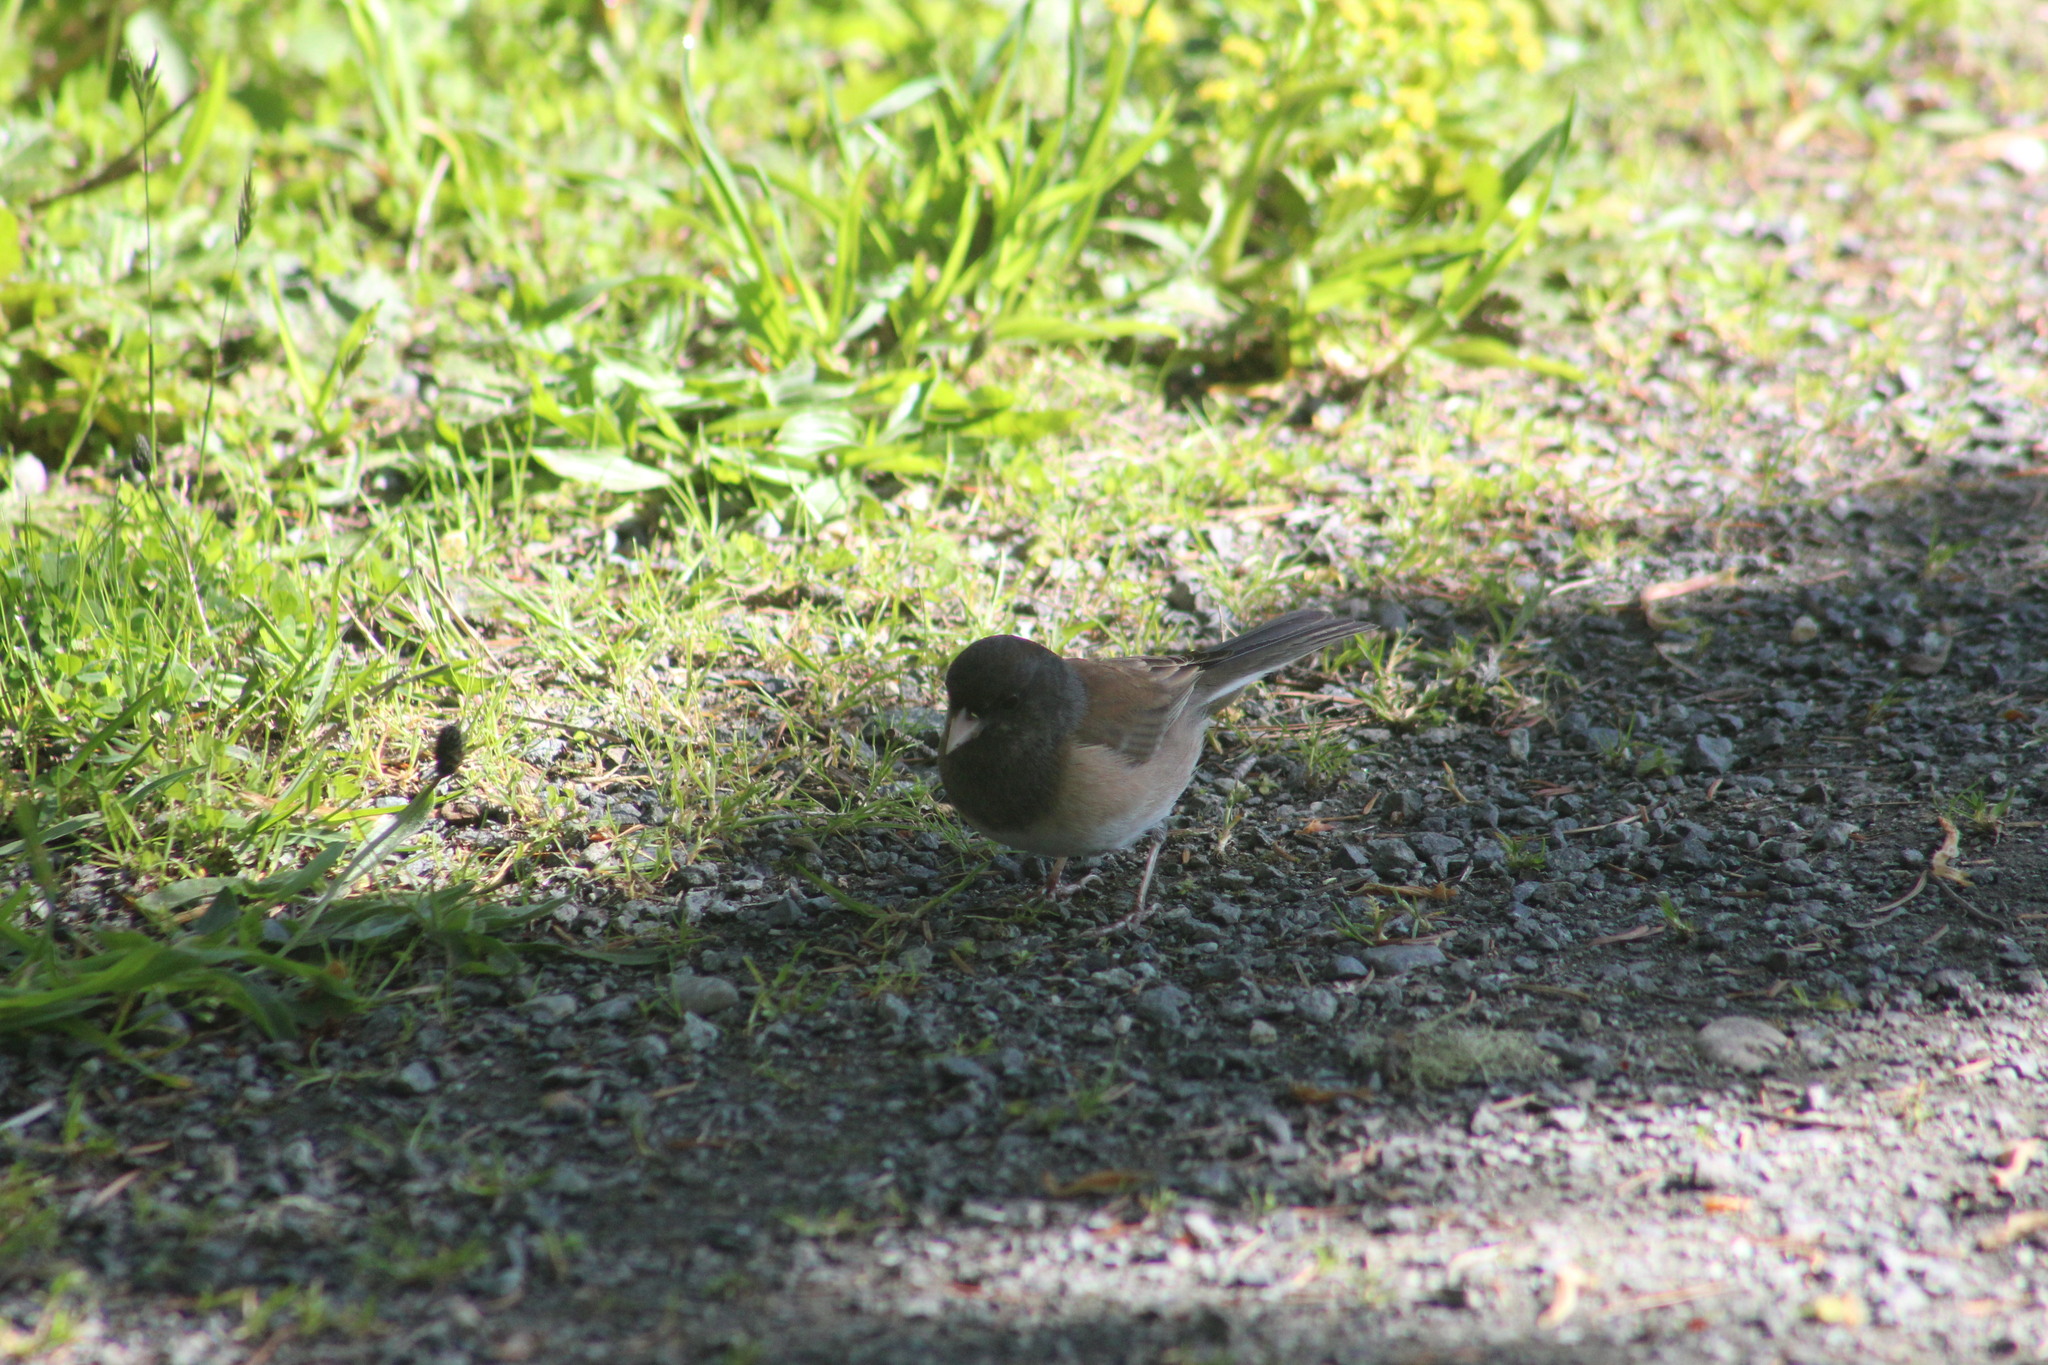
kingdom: Animalia
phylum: Chordata
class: Aves
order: Passeriformes
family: Passerellidae
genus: Junco
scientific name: Junco hyemalis
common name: Dark-eyed junco
